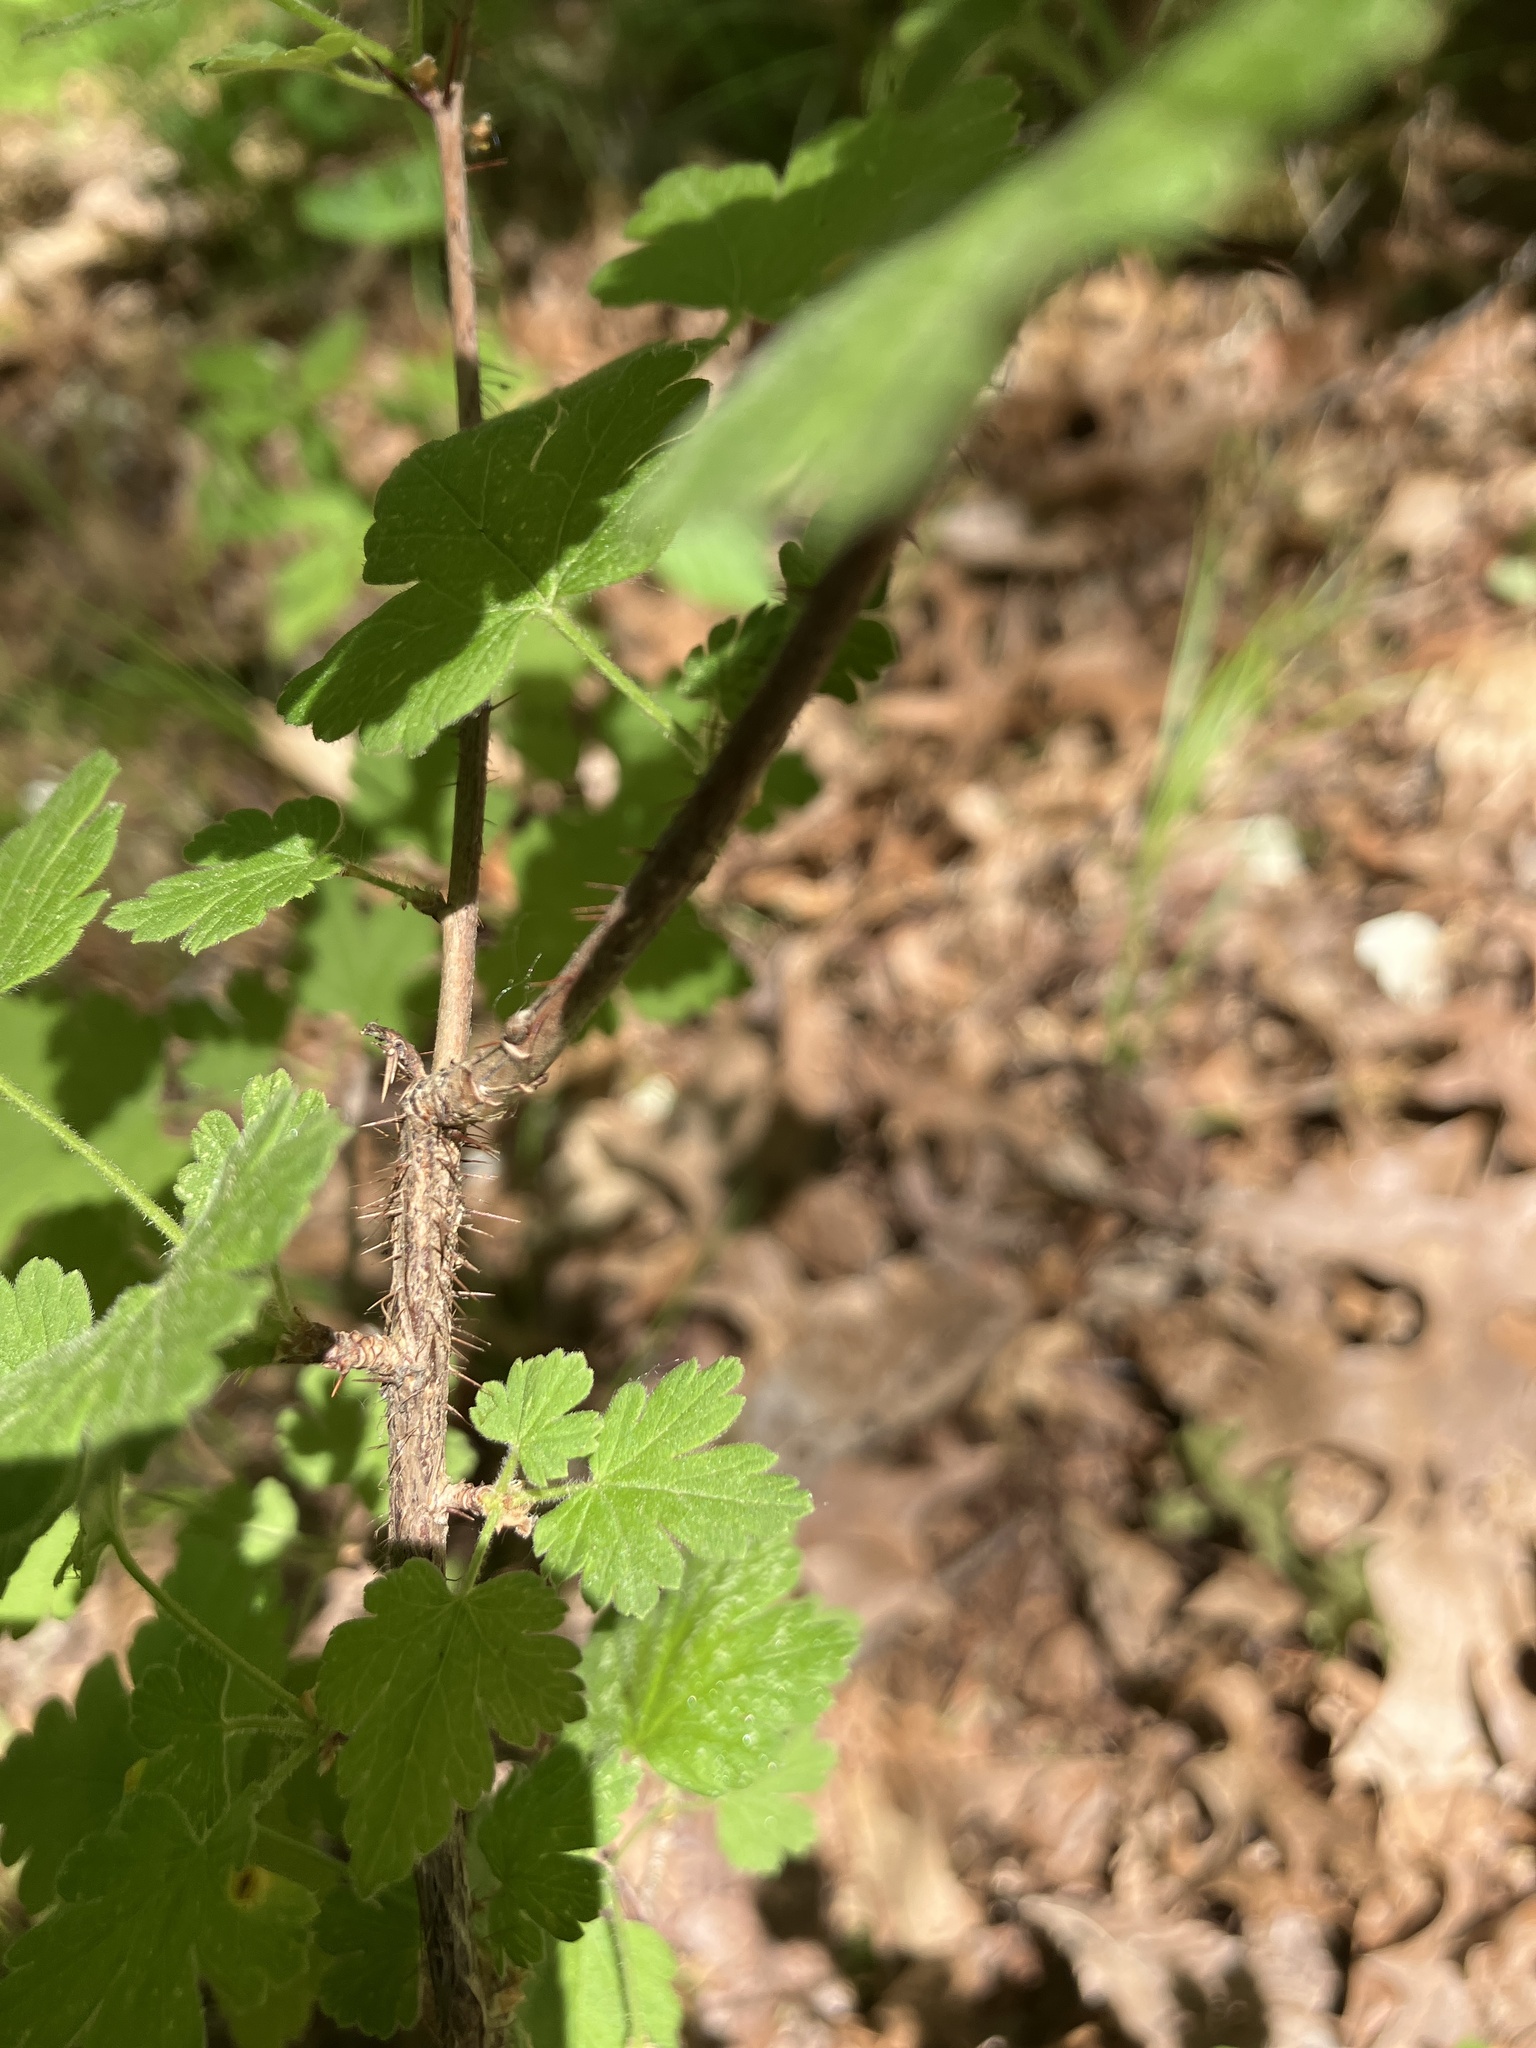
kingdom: Plantae
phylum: Tracheophyta
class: Magnoliopsida
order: Saxifragales
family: Grossulariaceae
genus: Ribes
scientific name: Ribes cynosbati
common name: American gooseberry
